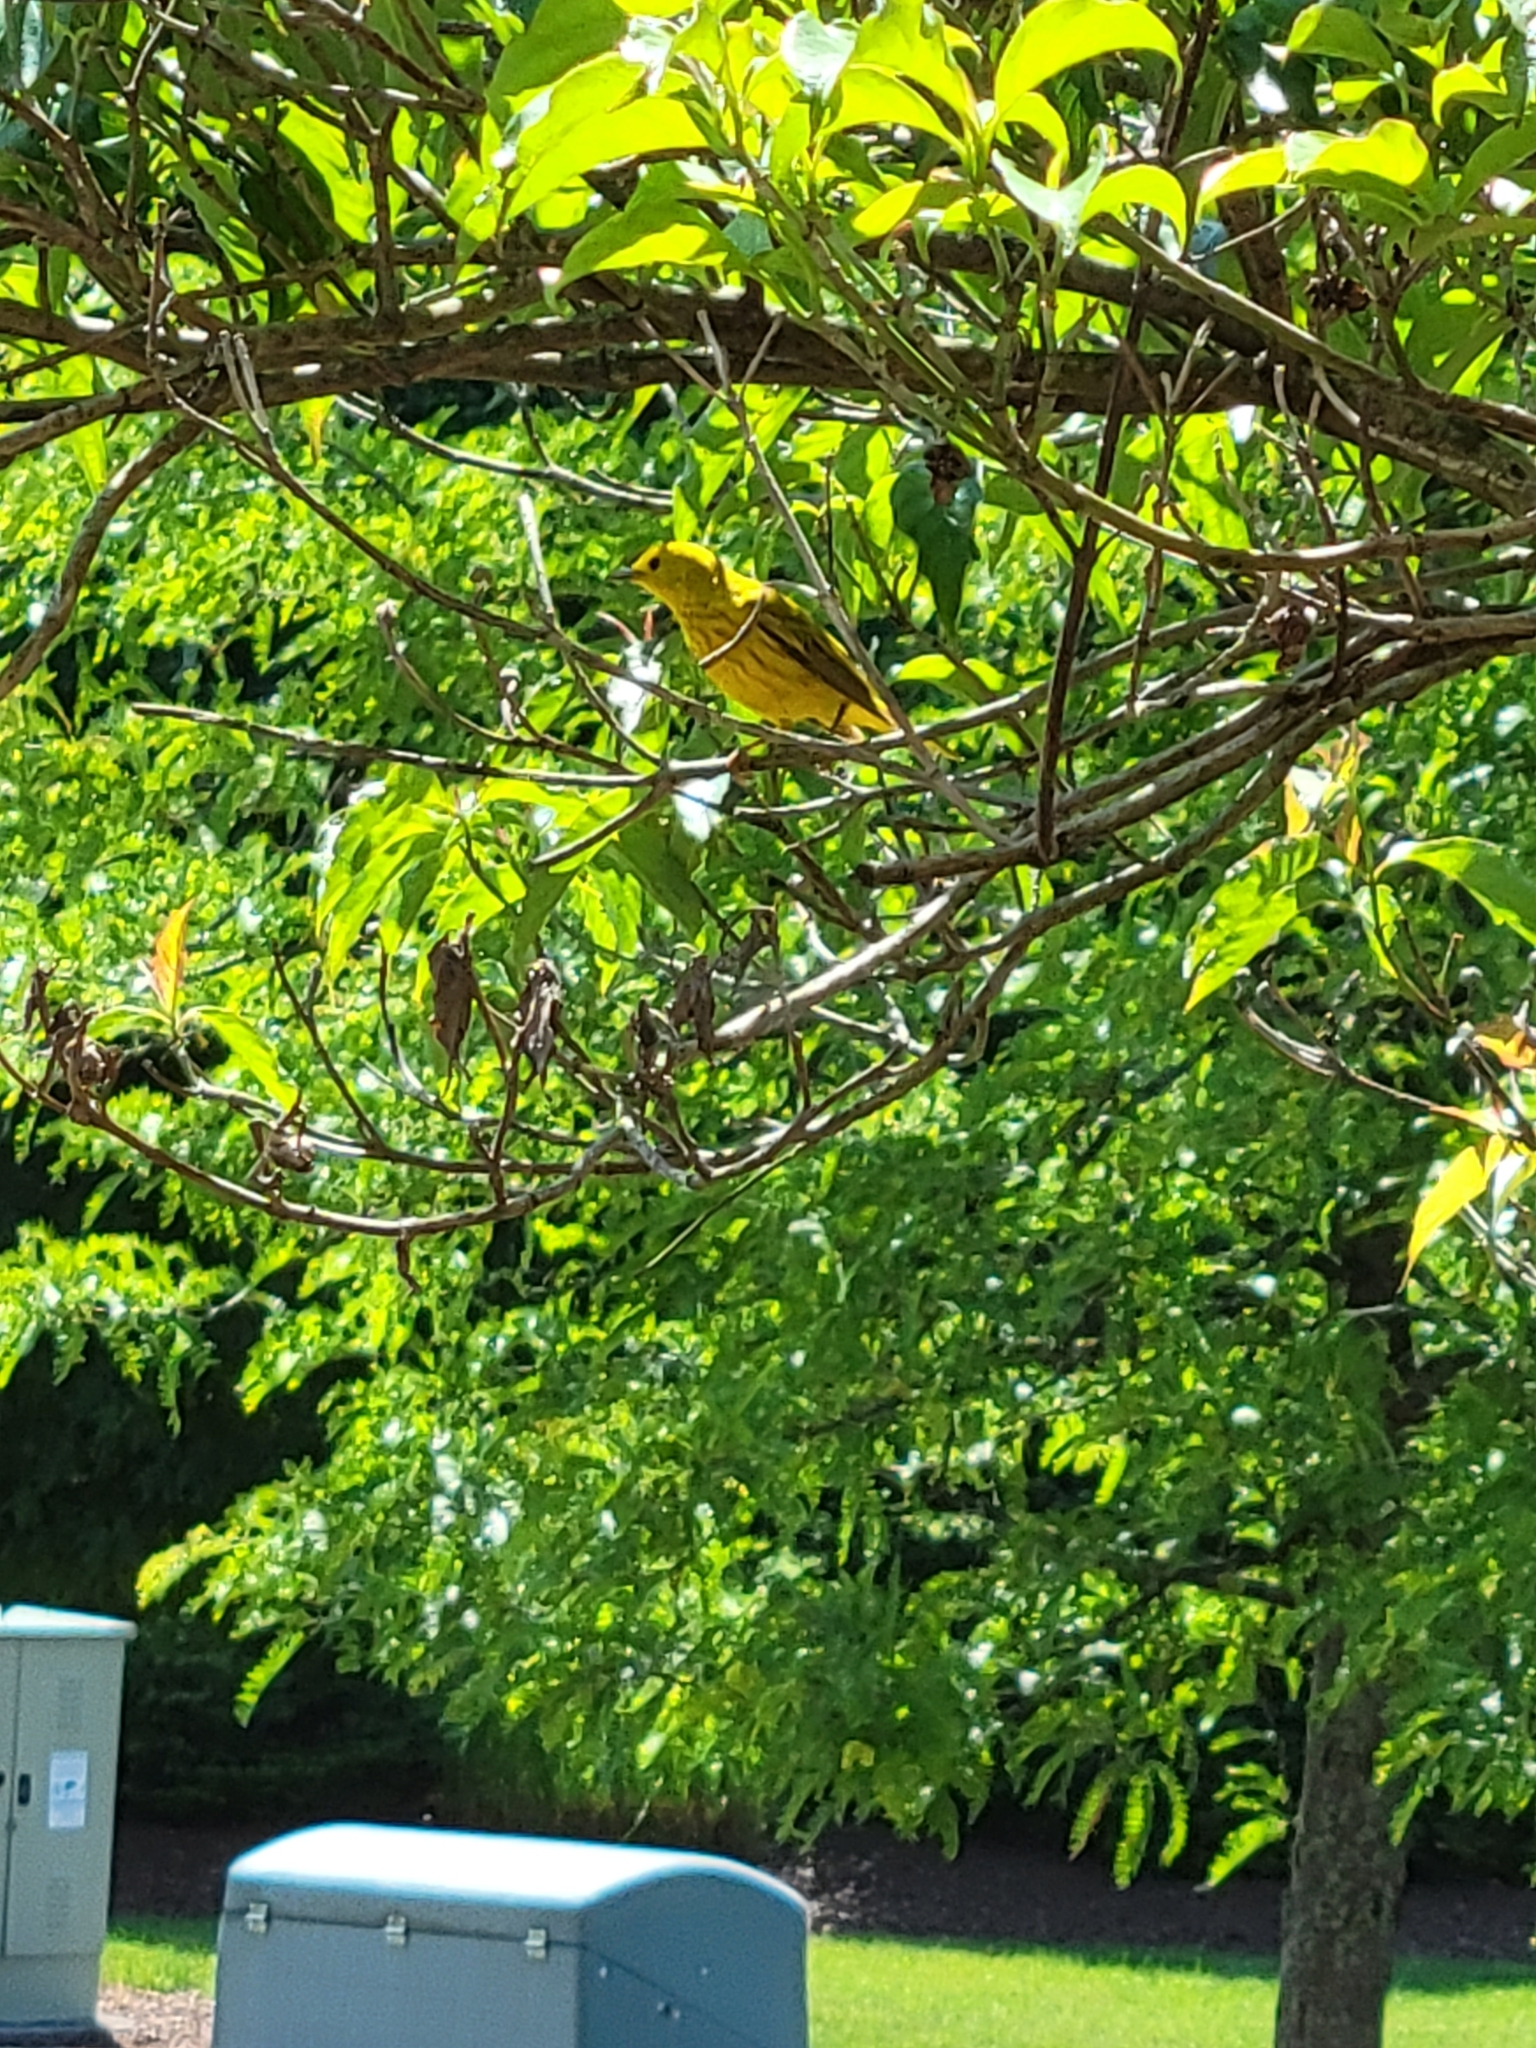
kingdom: Animalia
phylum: Chordata
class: Aves
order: Passeriformes
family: Parulidae
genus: Setophaga
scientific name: Setophaga petechia
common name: Yellow warbler
